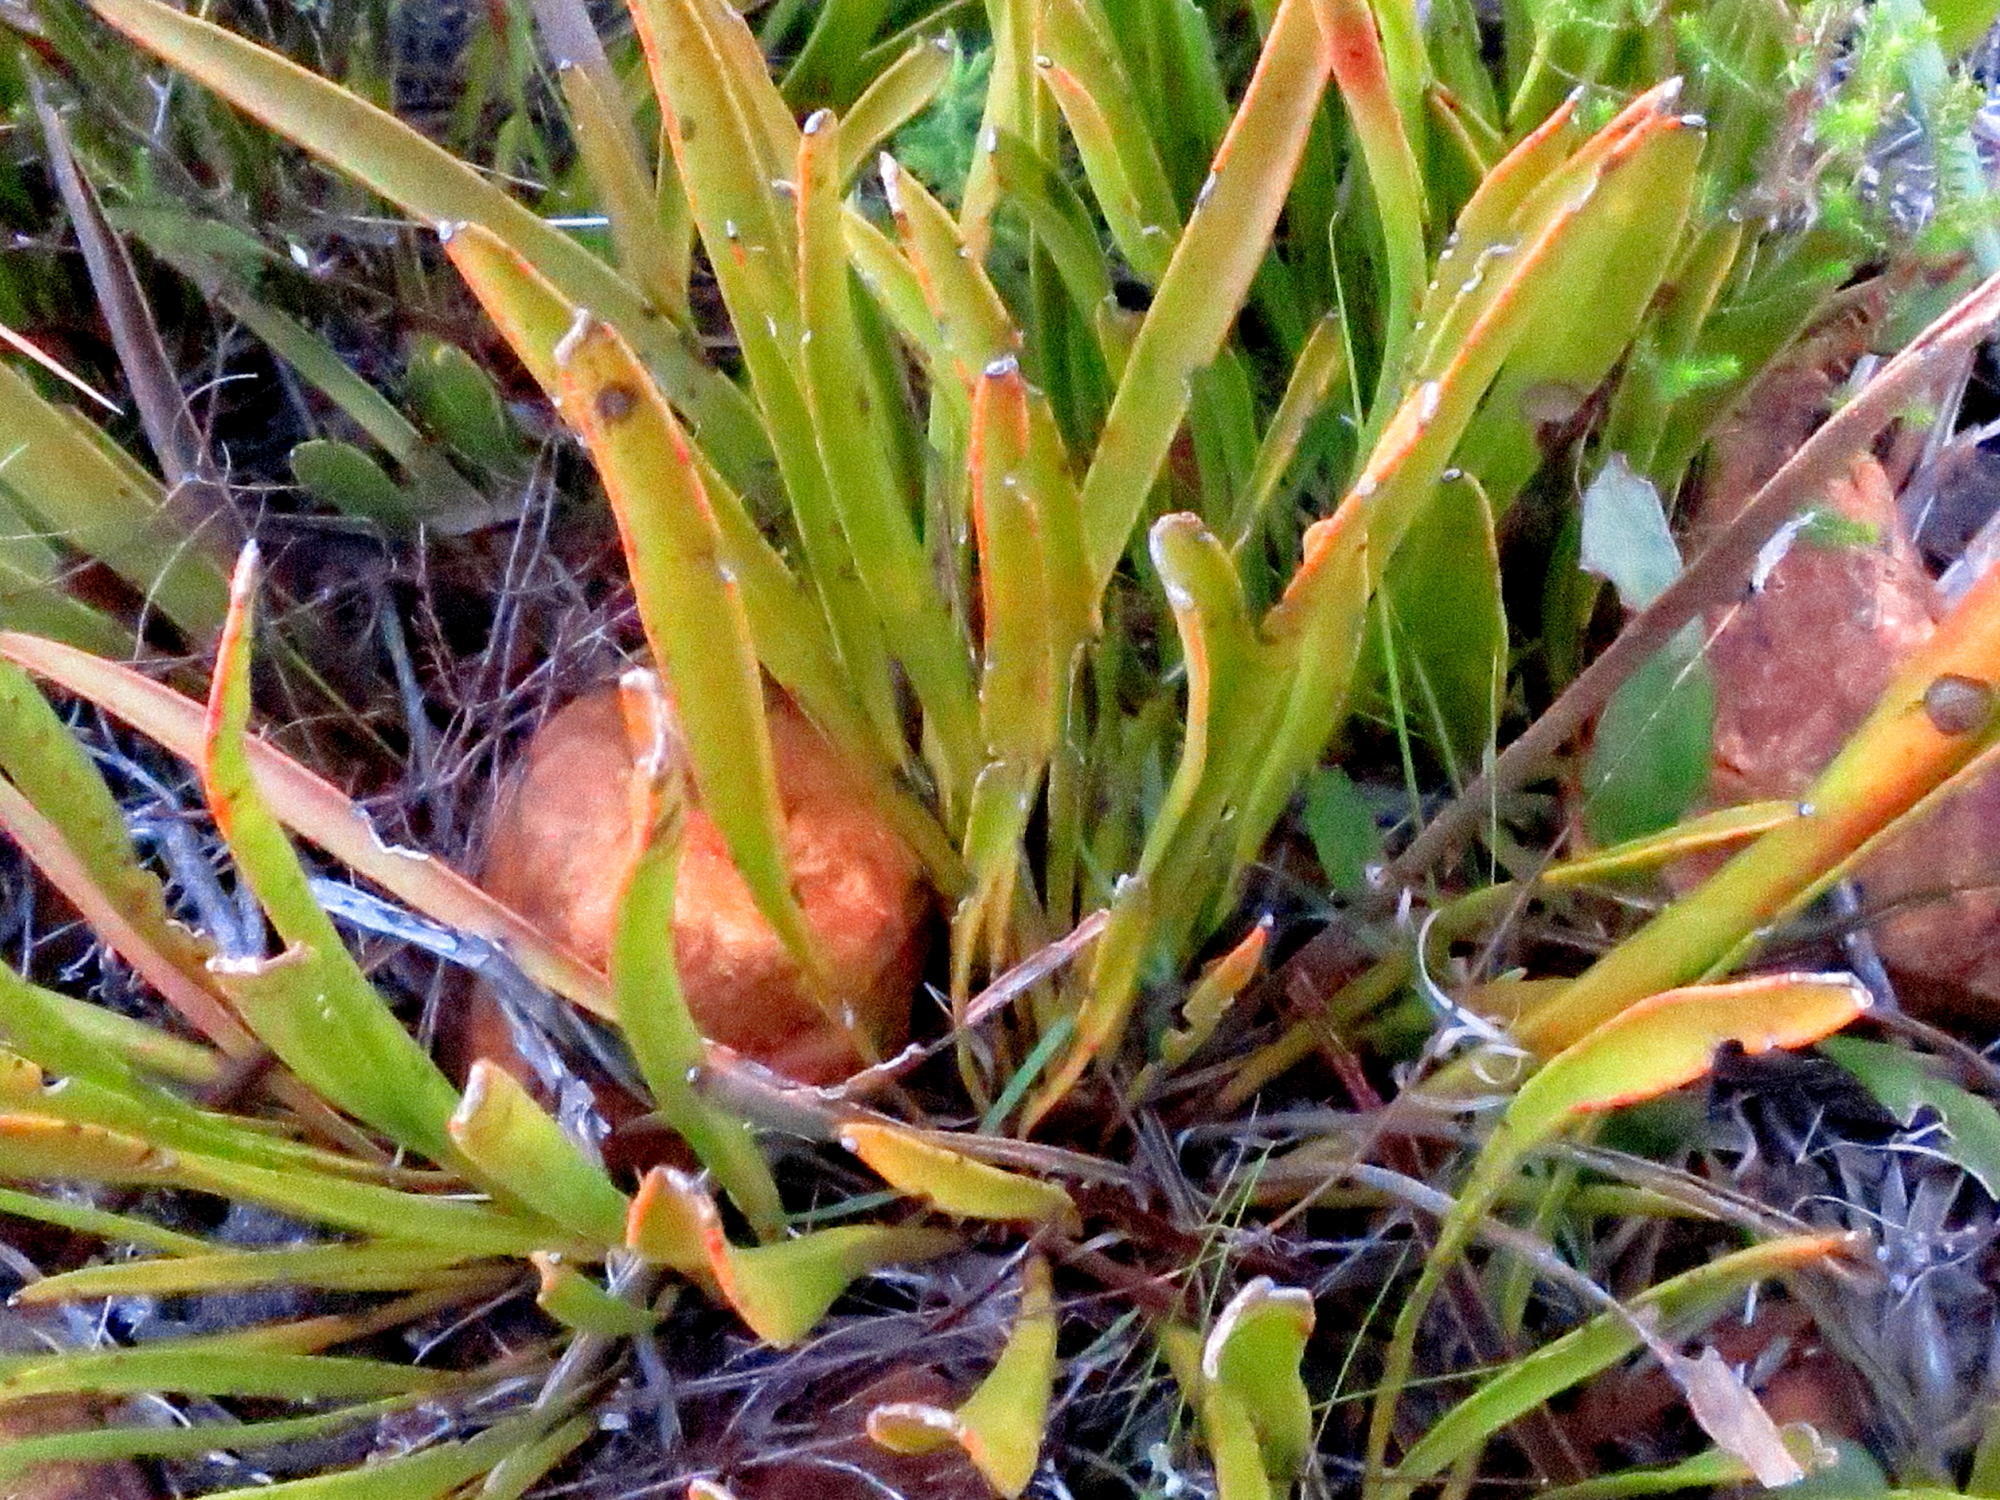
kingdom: Plantae
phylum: Tracheophyta
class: Magnoliopsida
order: Proteales
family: Proteaceae
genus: Protea
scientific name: Protea scabra
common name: Sandpaper-leaf sugarbush
